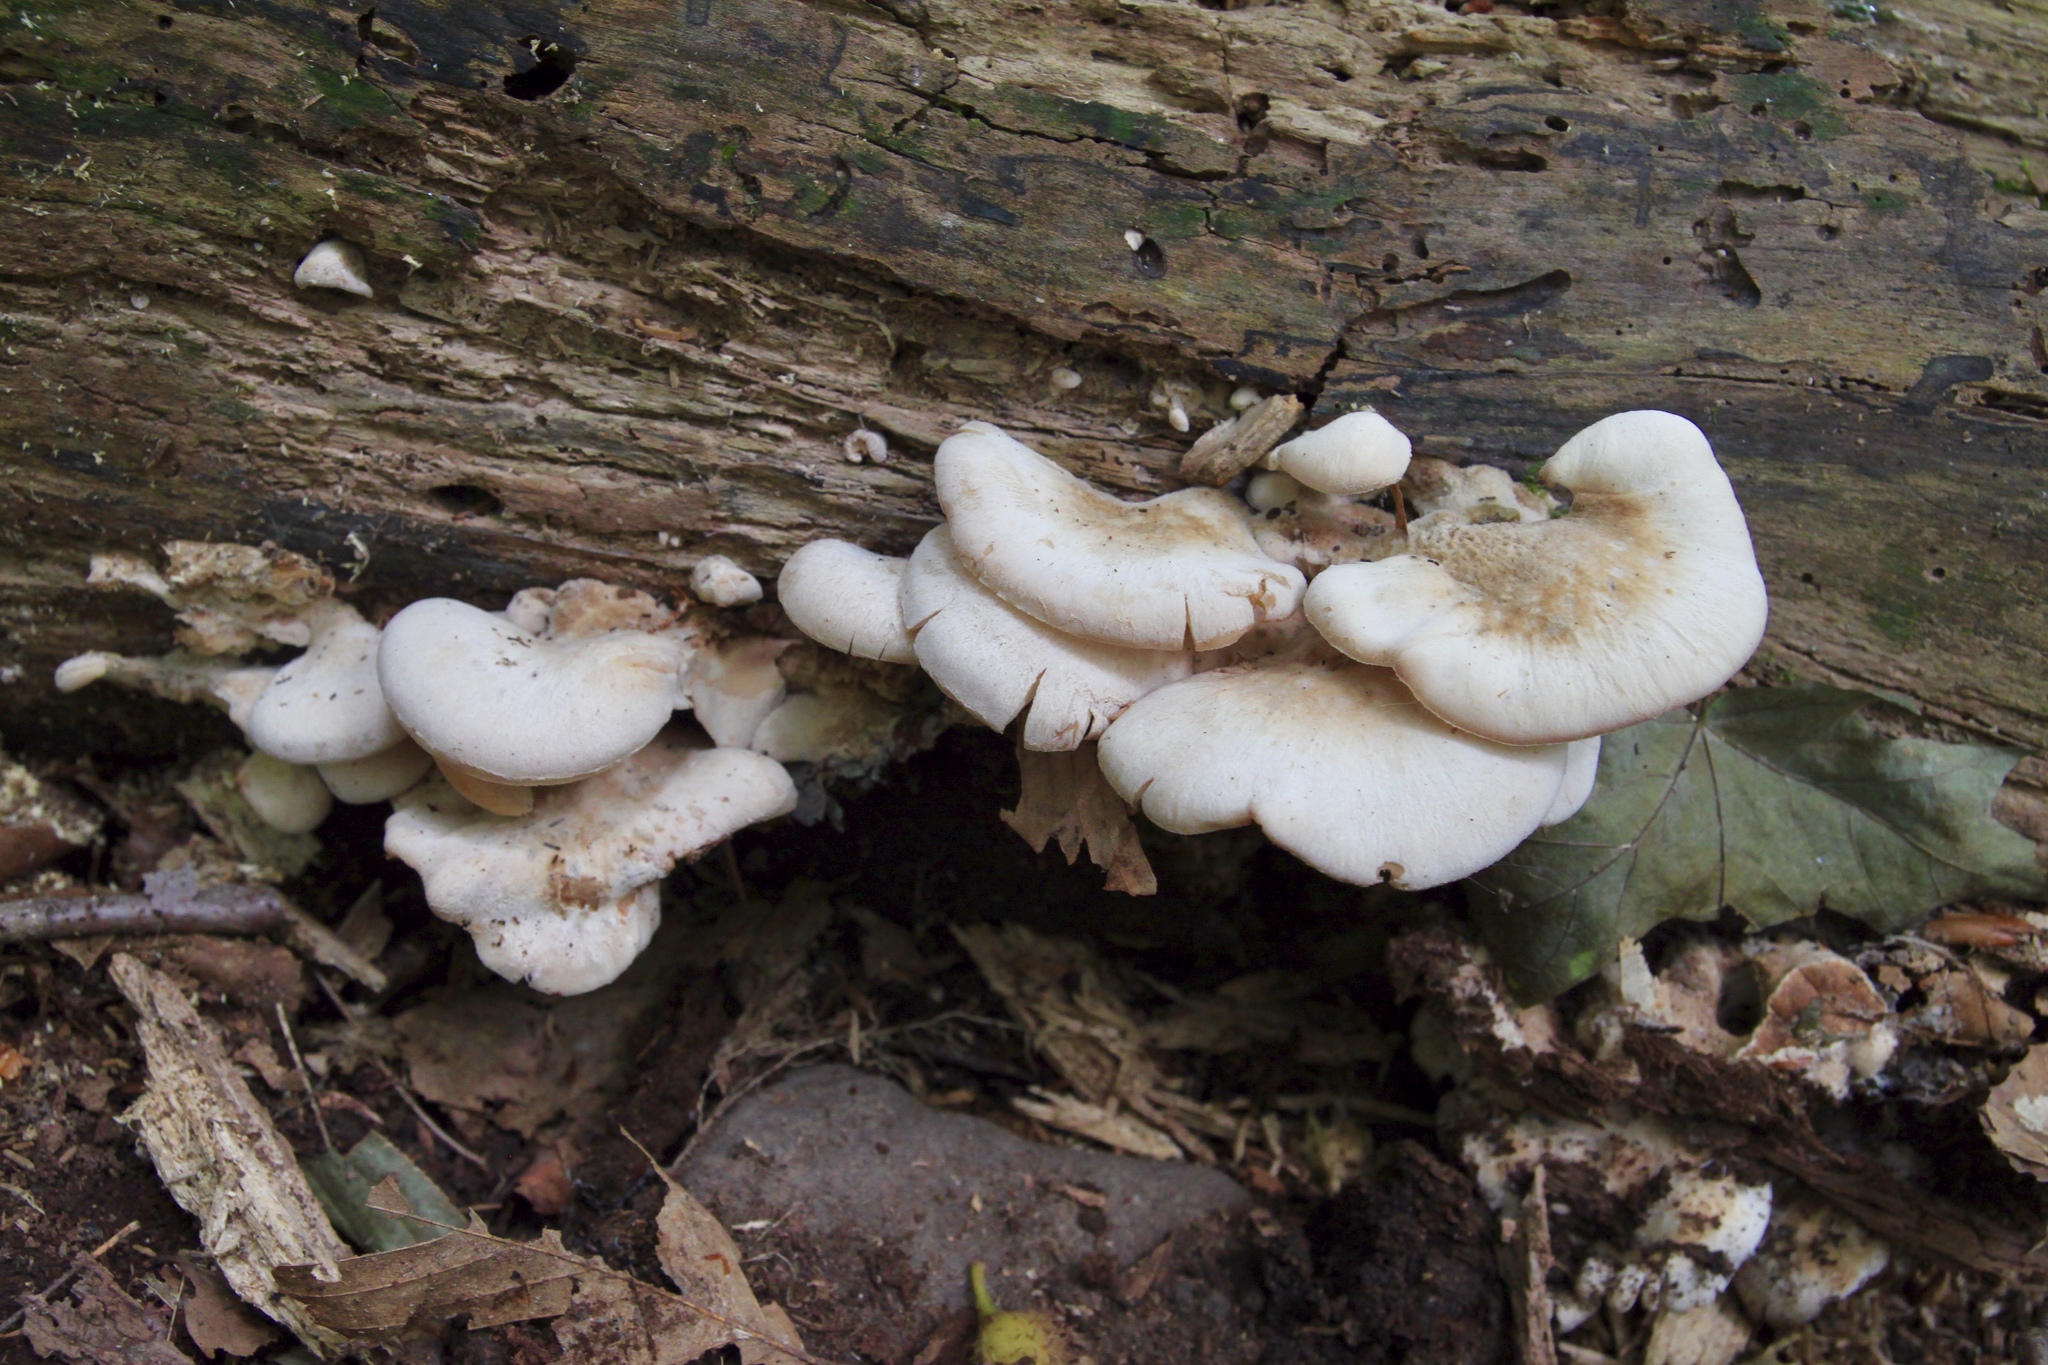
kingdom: Fungi
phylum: Basidiomycota
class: Agaricomycetes
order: Russulales
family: Auriscalpiaceae
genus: Lentinellus
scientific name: Lentinellus ursinus
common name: Bear lentinus
